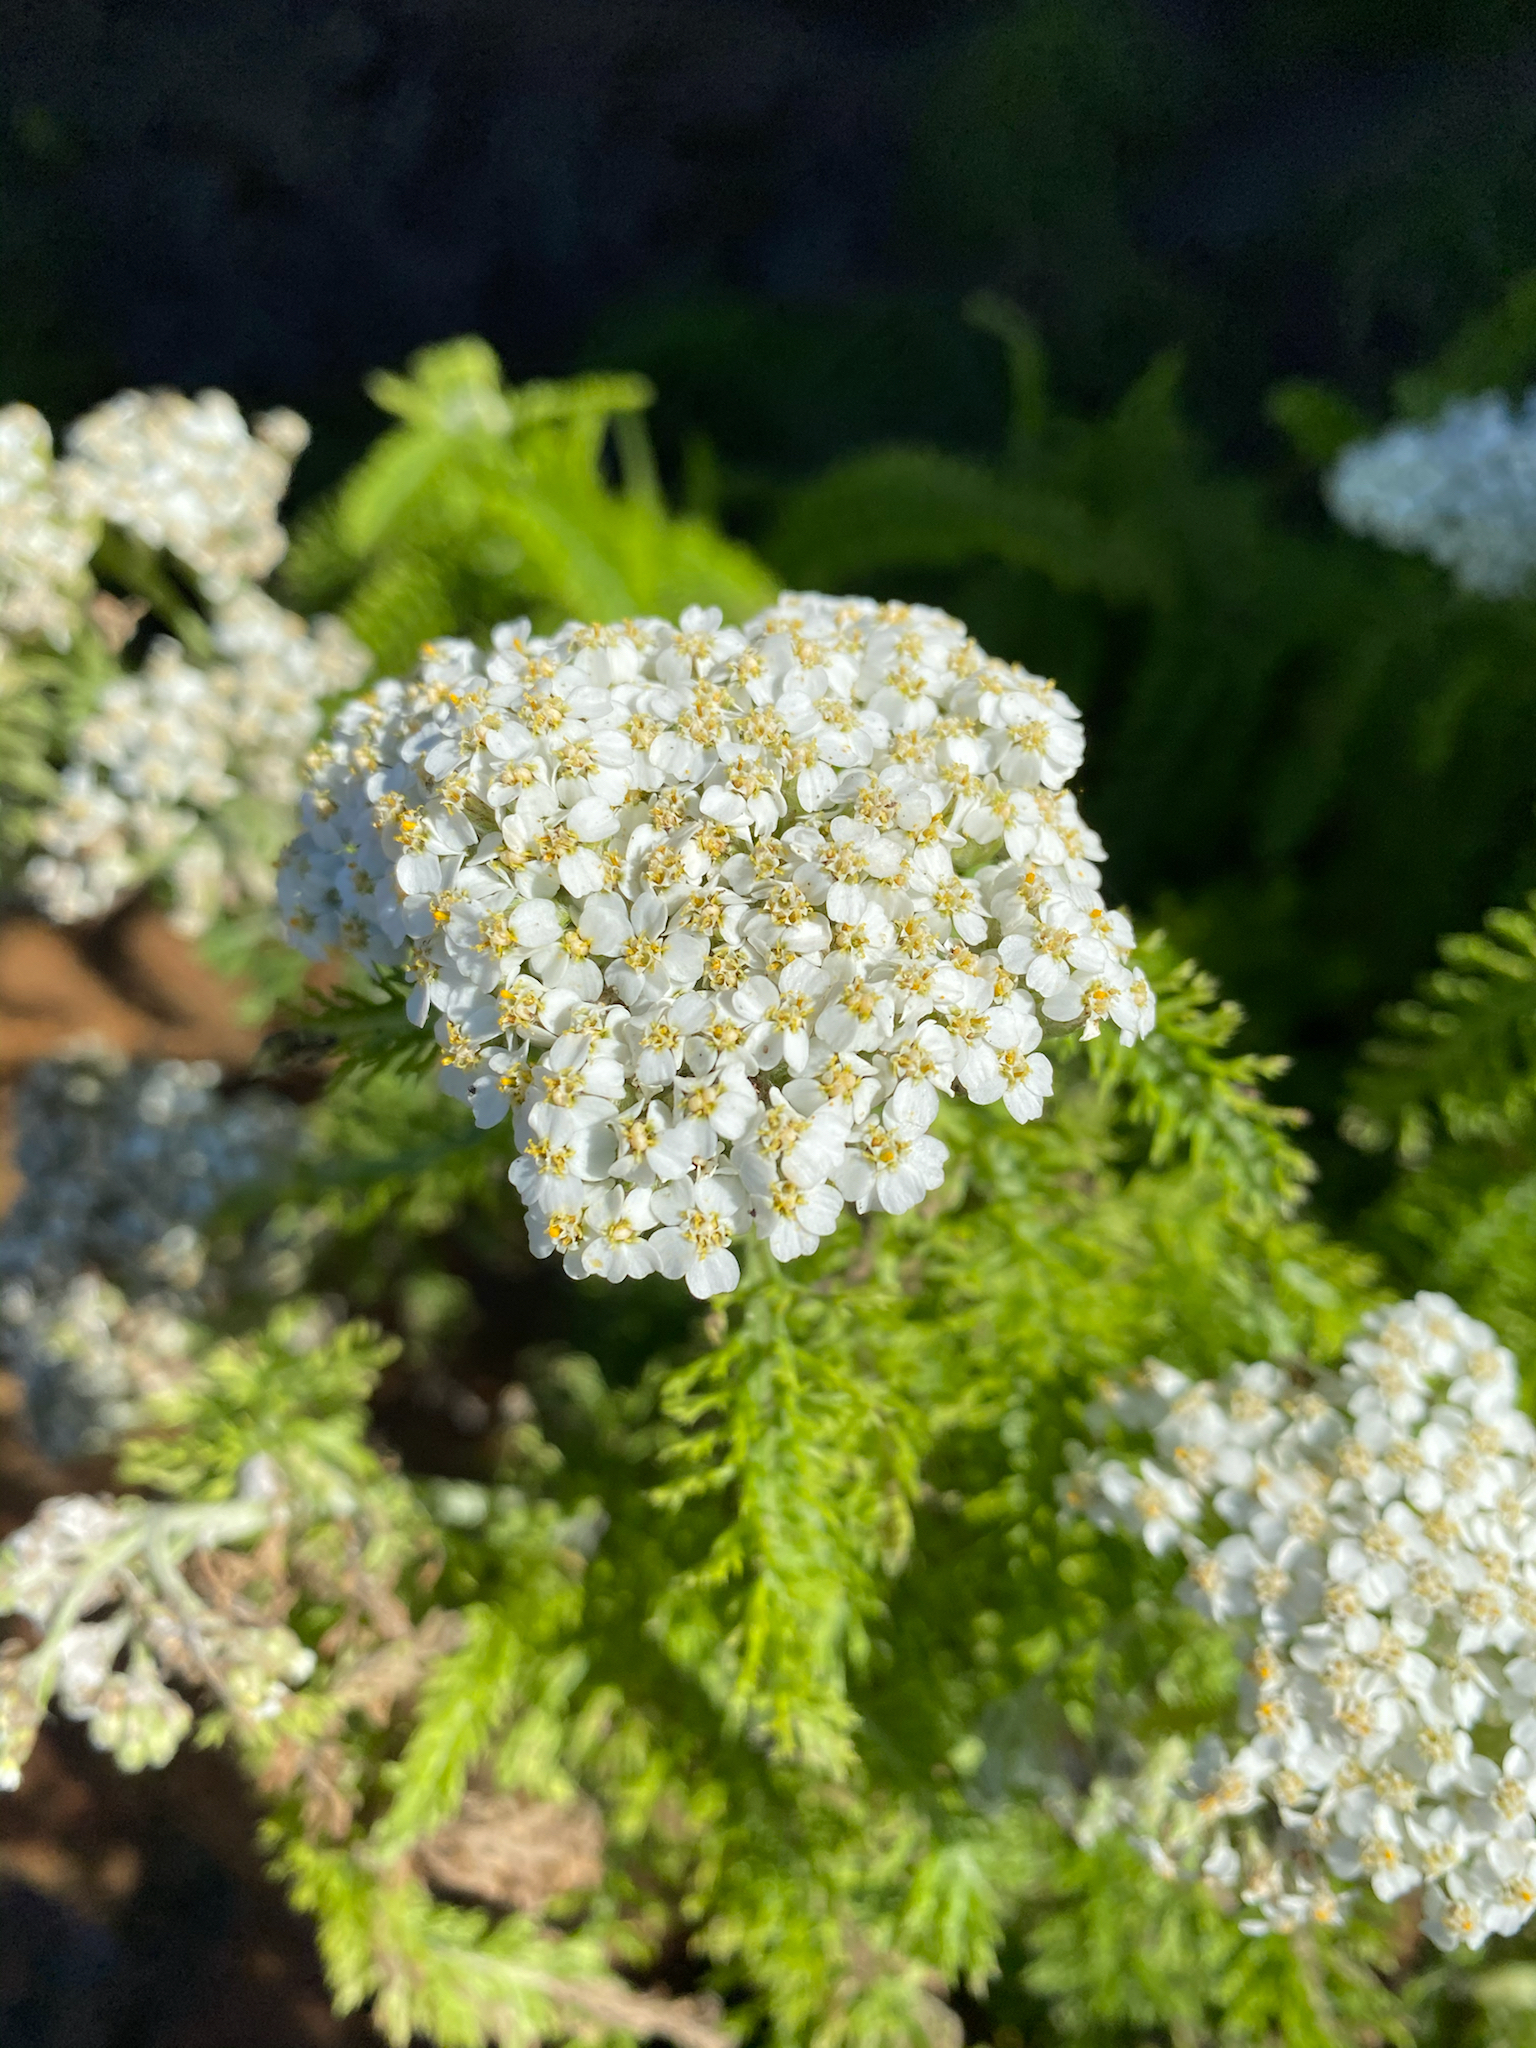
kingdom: Plantae
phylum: Tracheophyta
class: Magnoliopsida
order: Asterales
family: Asteraceae
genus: Achillea
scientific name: Achillea millefolium
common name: Yarrow
